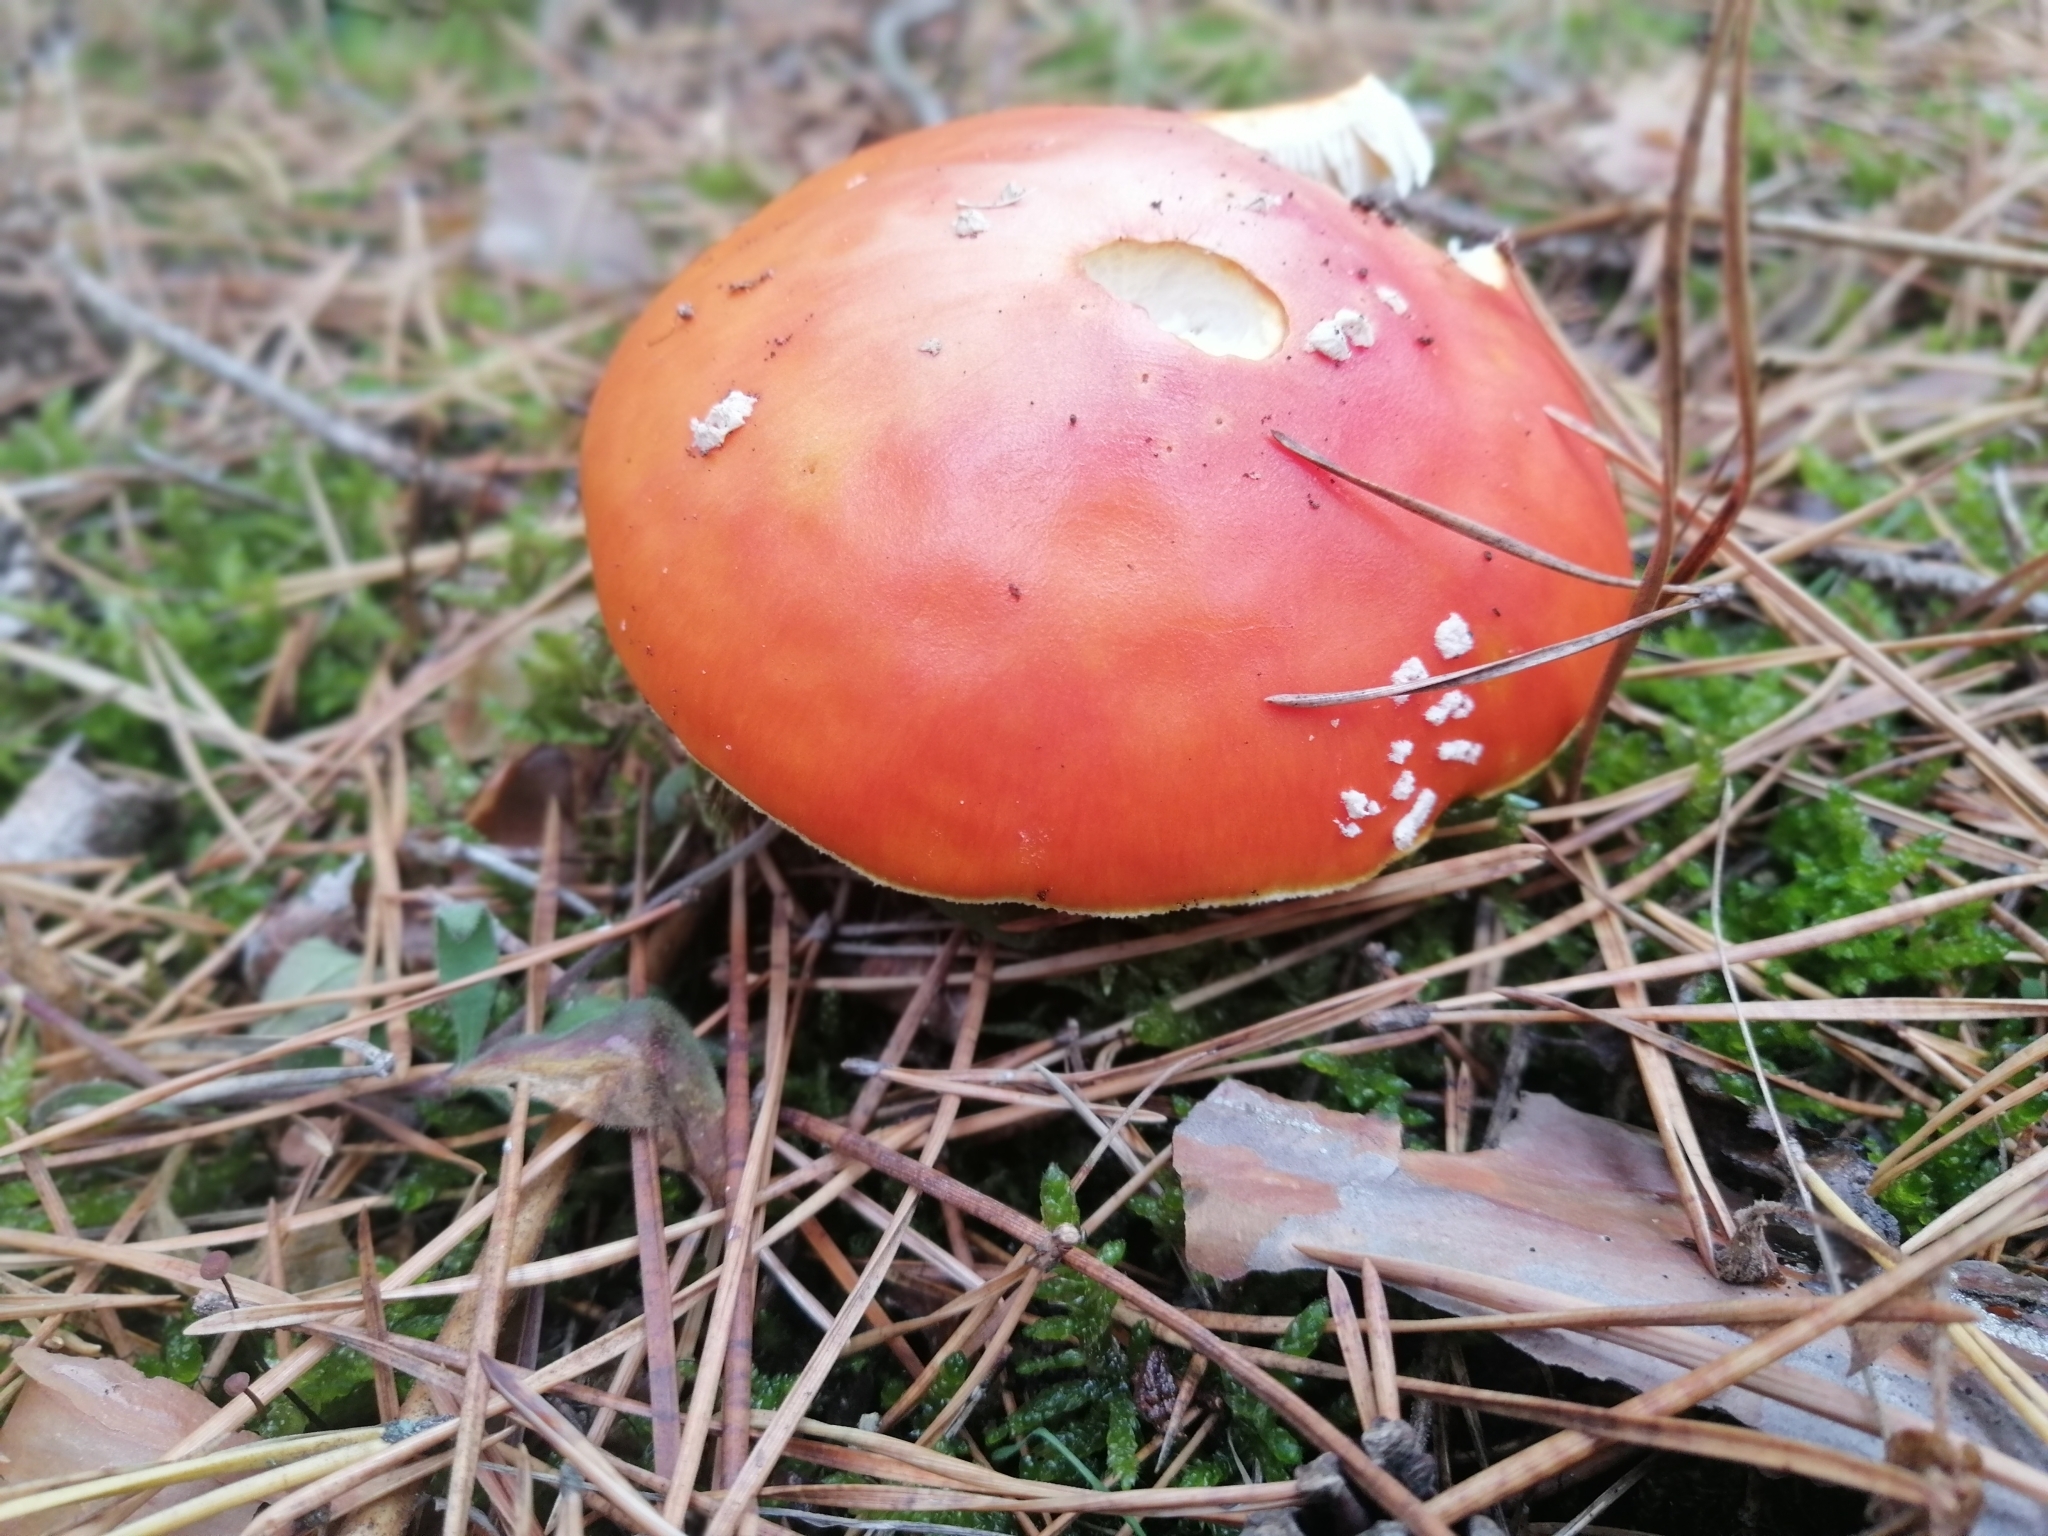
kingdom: Fungi
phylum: Basidiomycota
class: Agaricomycetes
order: Agaricales
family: Amanitaceae
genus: Amanita
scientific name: Amanita muscaria
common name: Fly agaric
